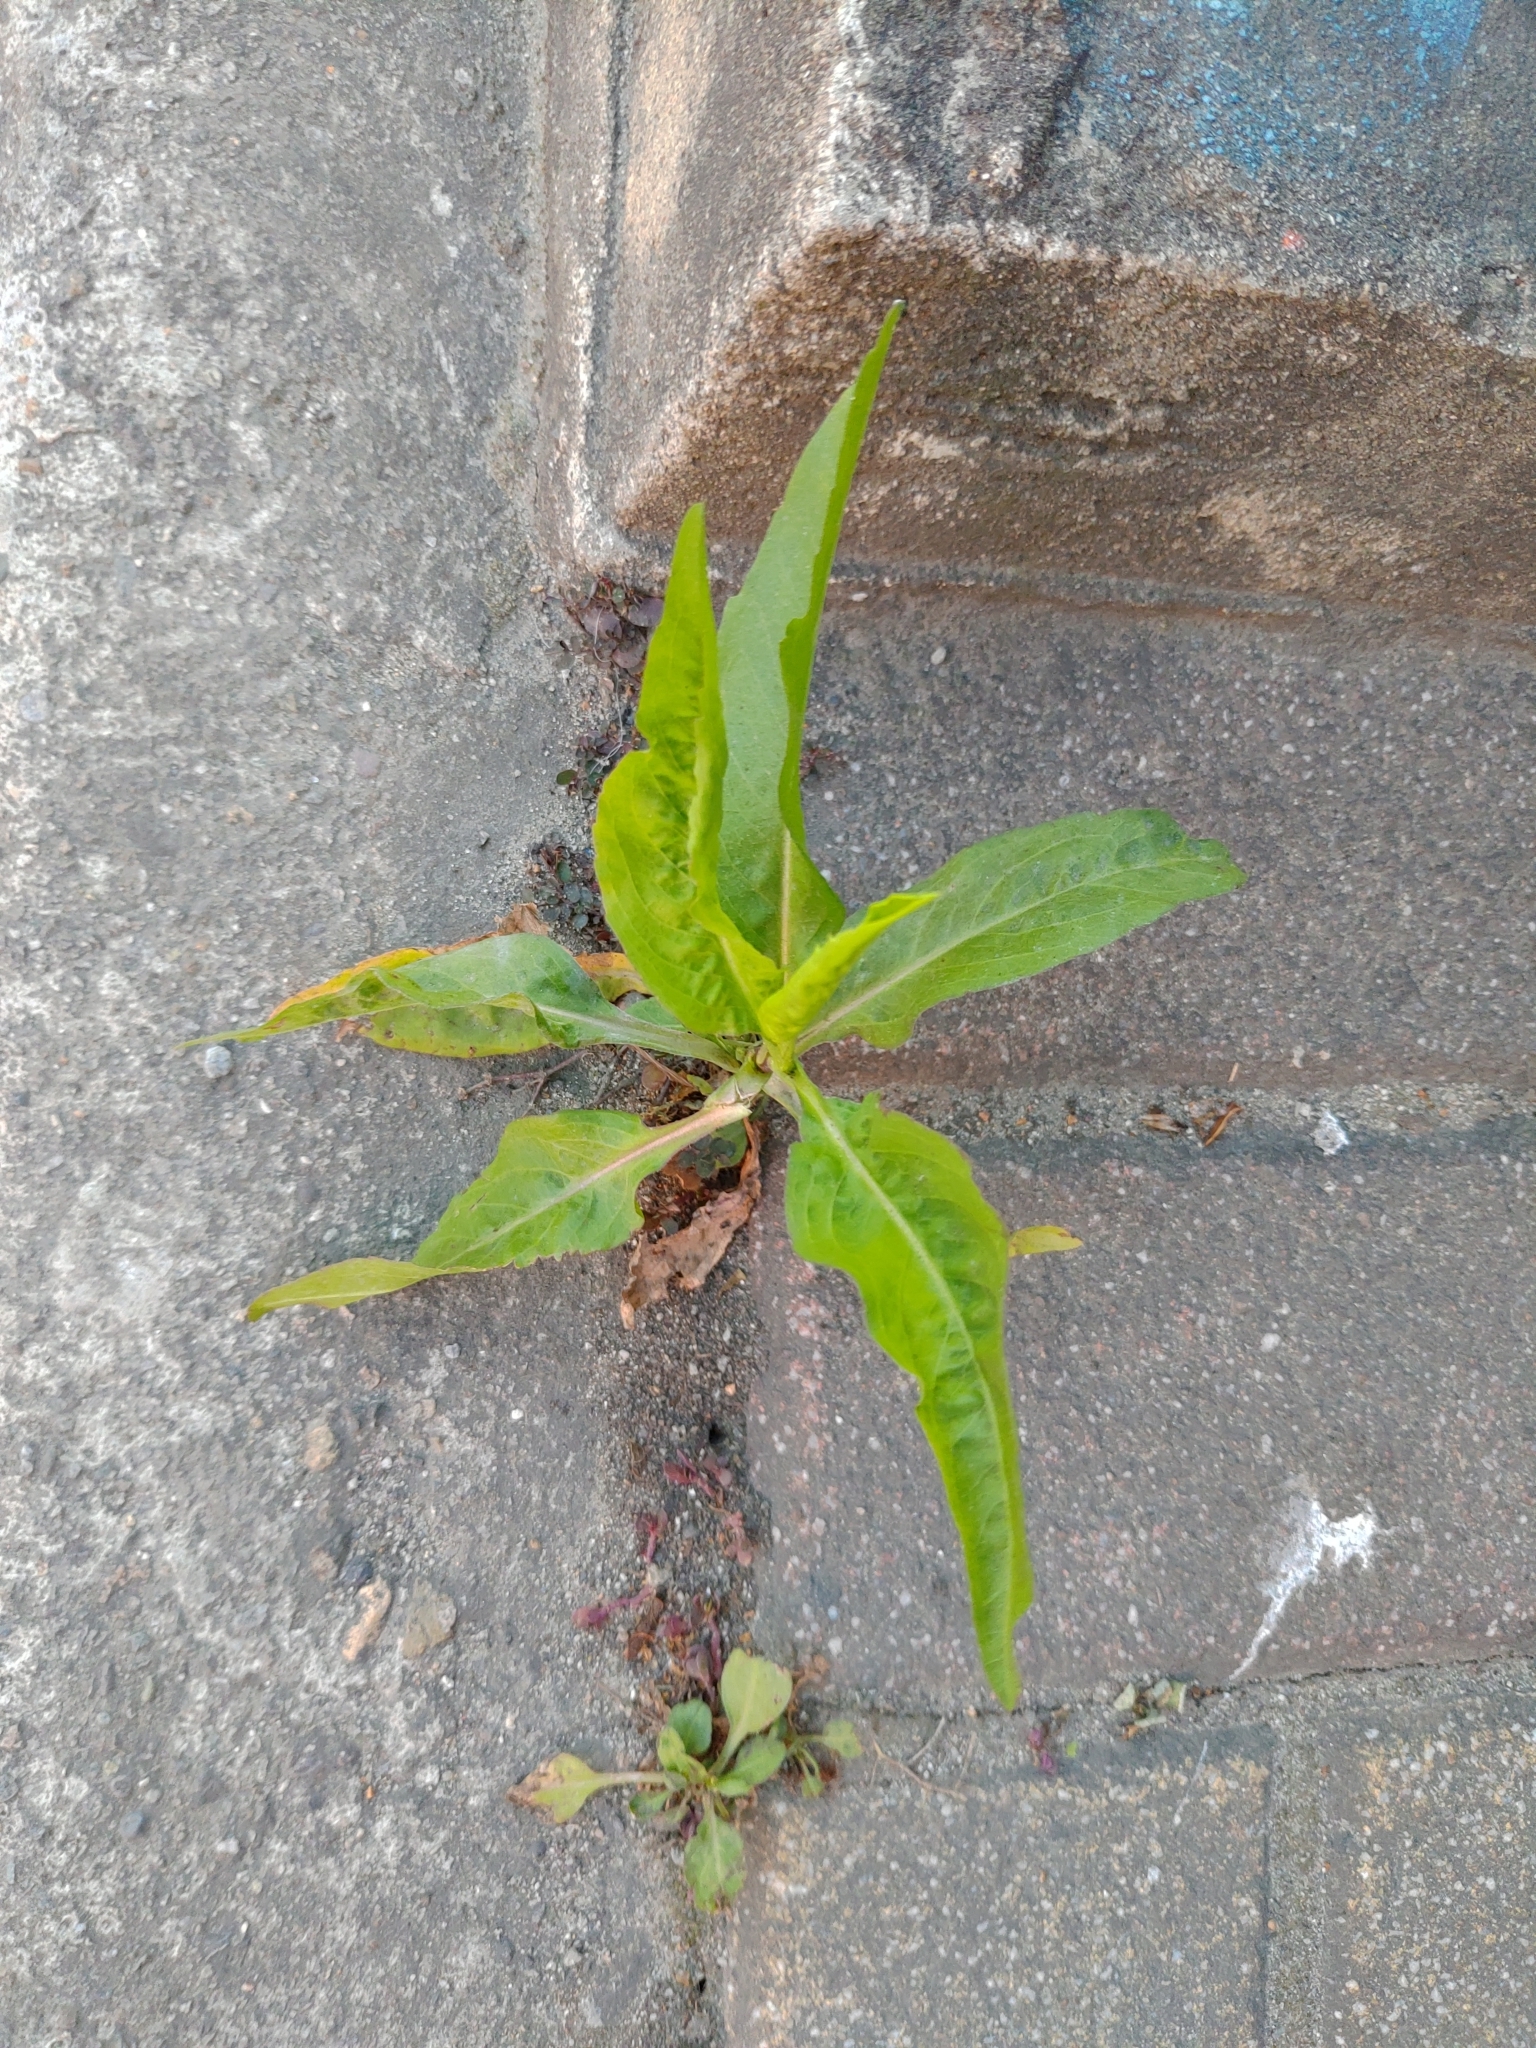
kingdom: Plantae
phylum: Tracheophyta
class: Magnoliopsida
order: Asterales
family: Asteraceae
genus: Symphyotrichum
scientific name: Symphyotrichum subulatum
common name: Annual saltmarsh aster
